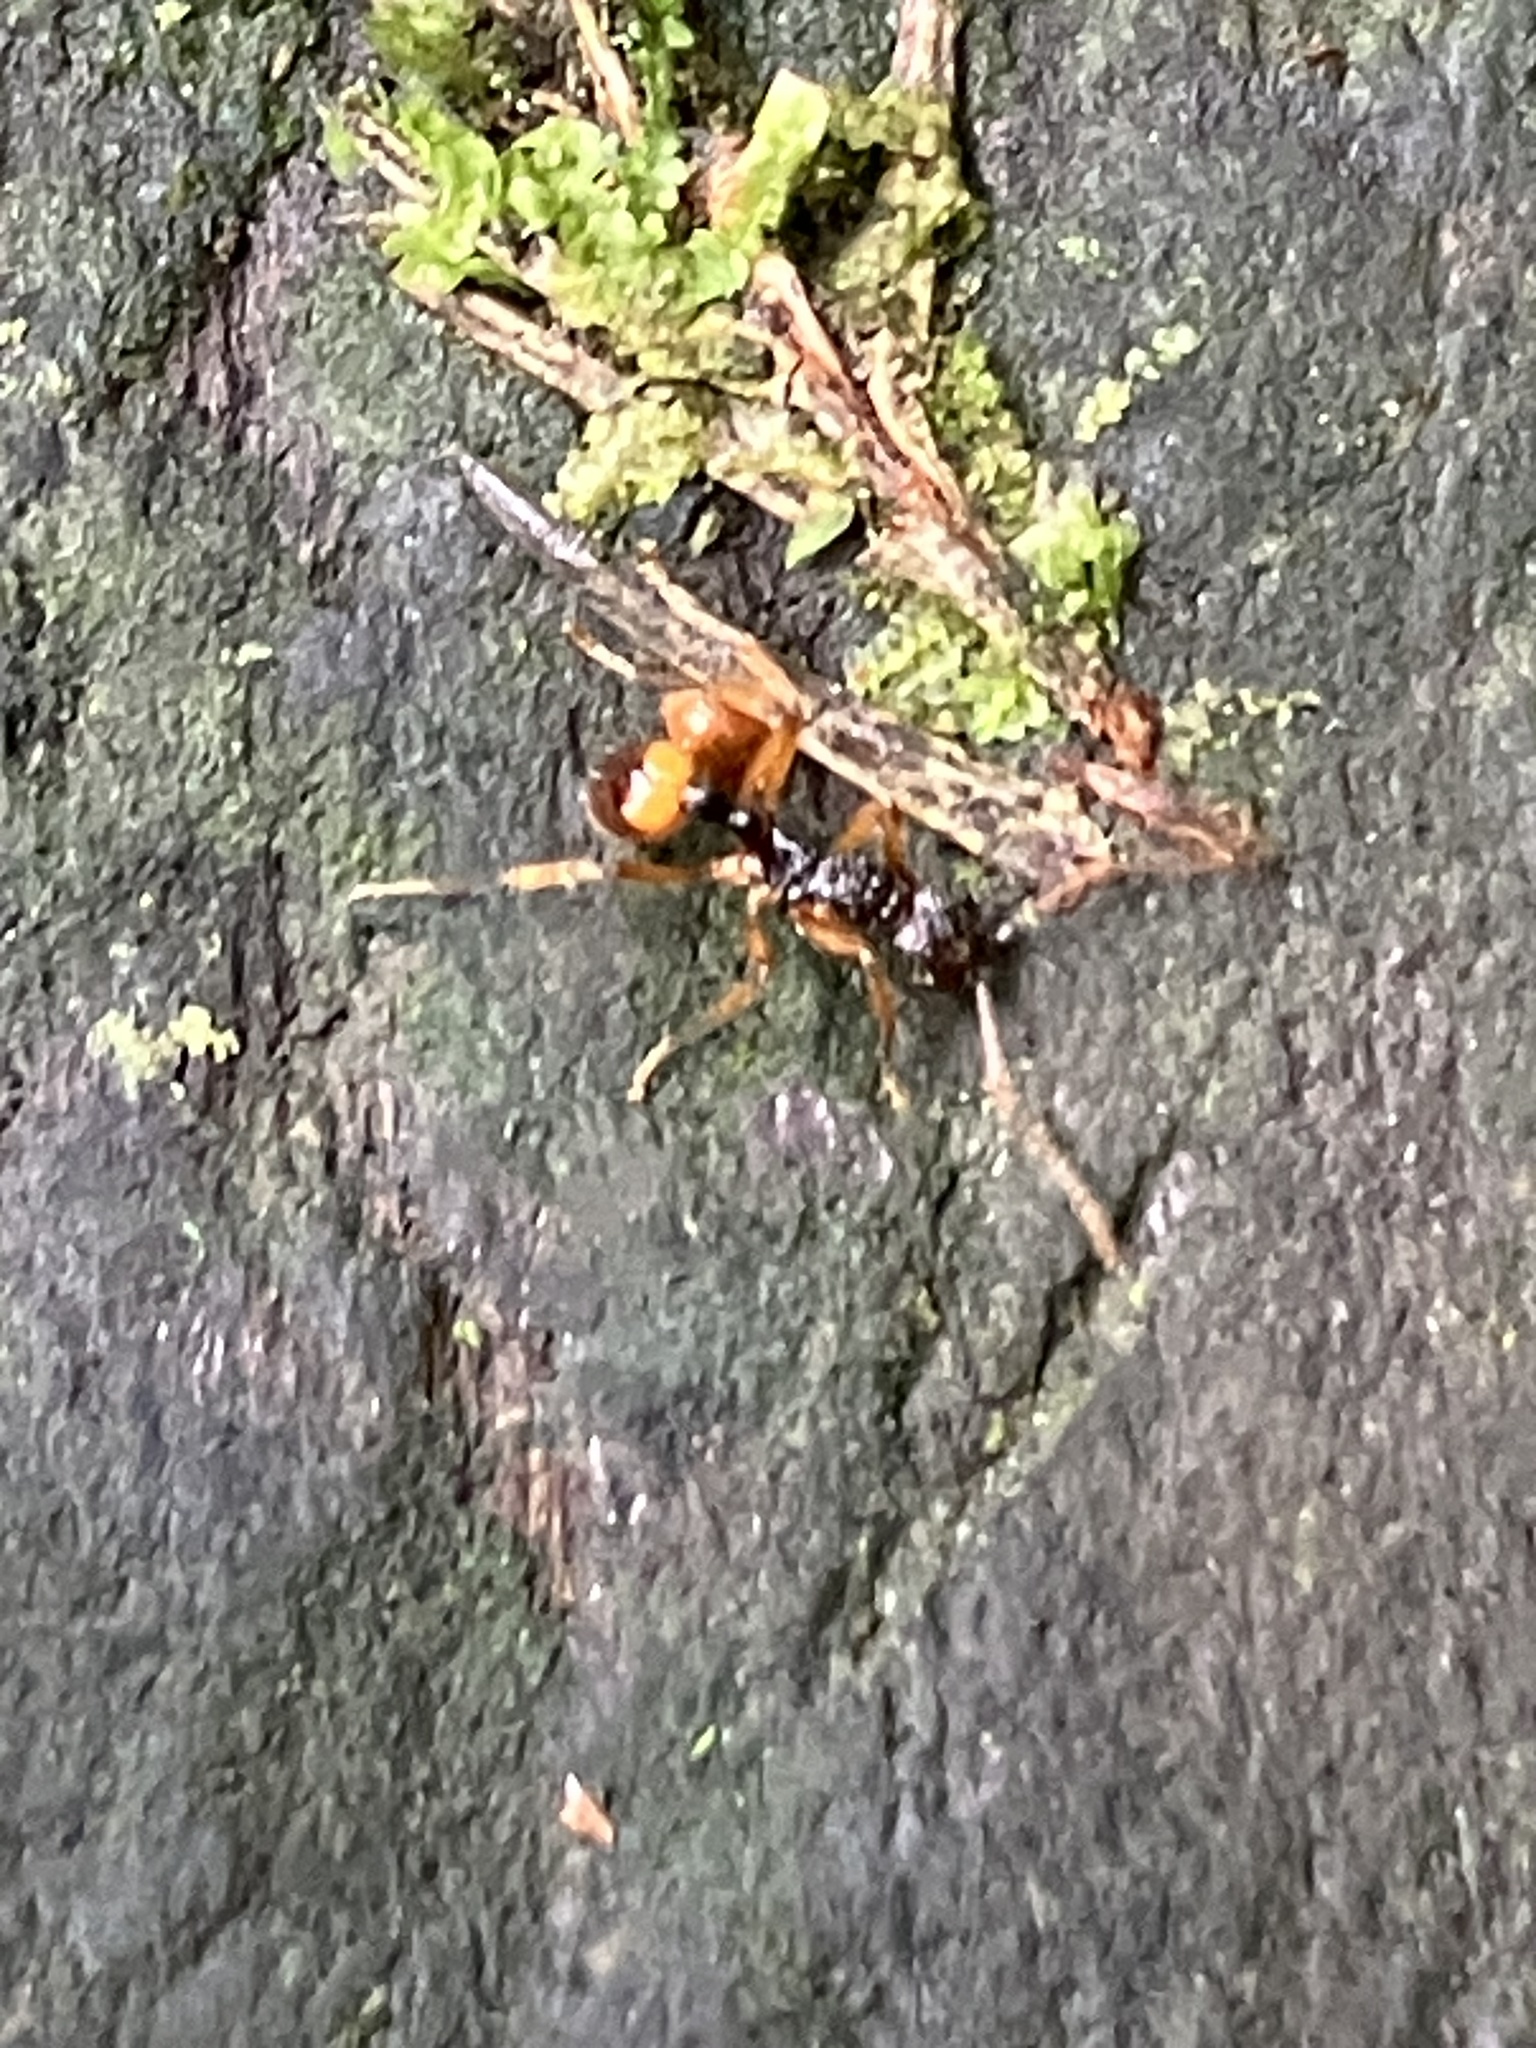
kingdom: Animalia
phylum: Arthropoda
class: Insecta
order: Hymenoptera
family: Formicidae
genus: Myrmica
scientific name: Myrmica pulchella
